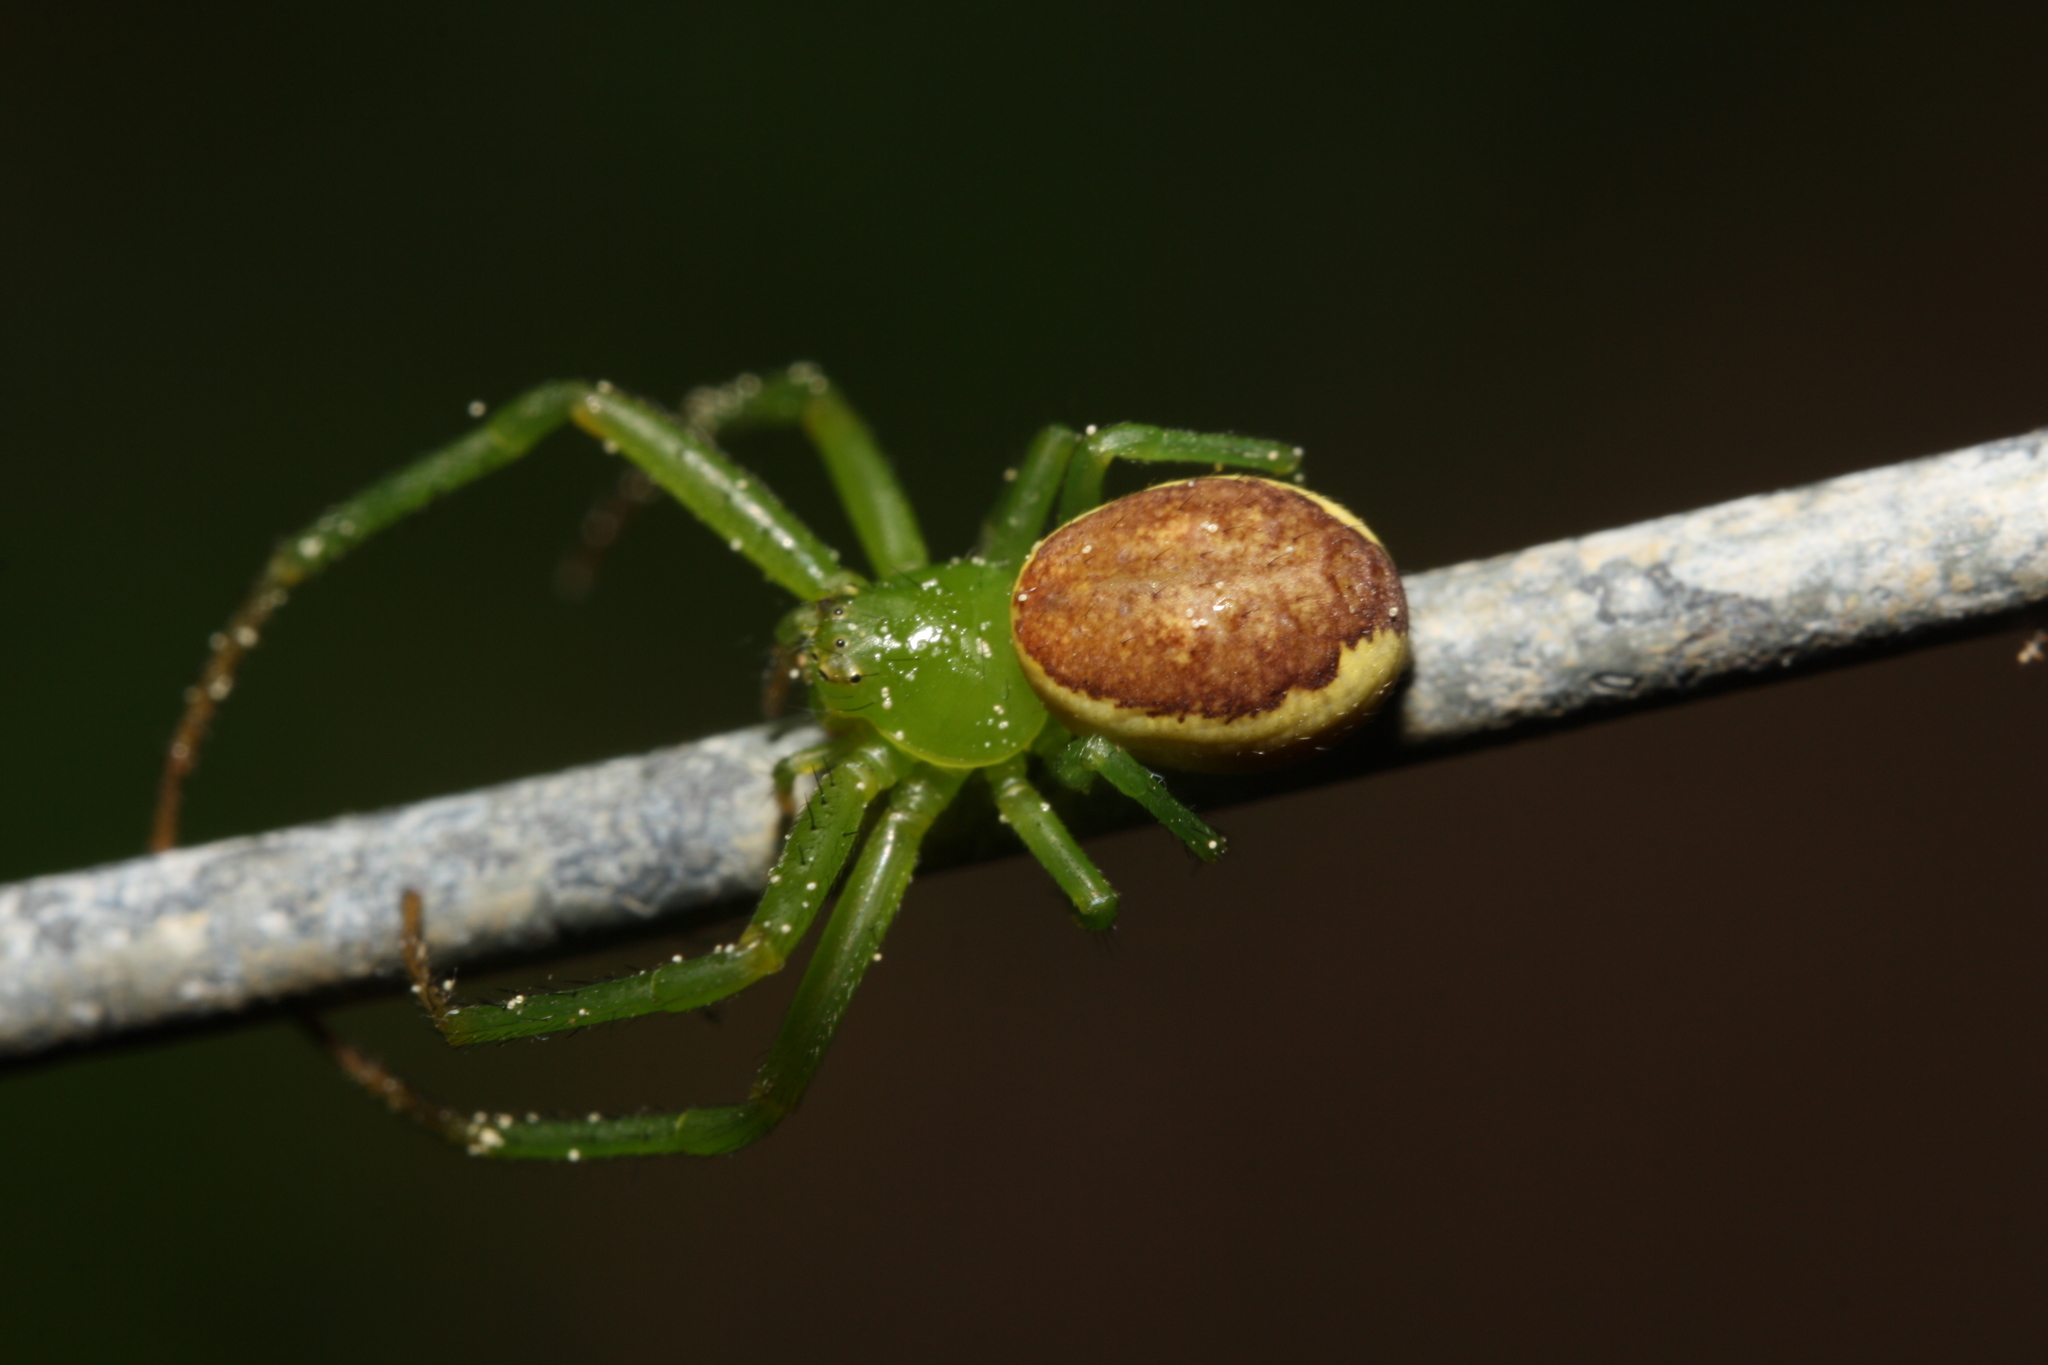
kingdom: Animalia
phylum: Arthropoda
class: Arachnida
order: Araneae
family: Thomisidae
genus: Diaea
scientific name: Diaea dorsata
